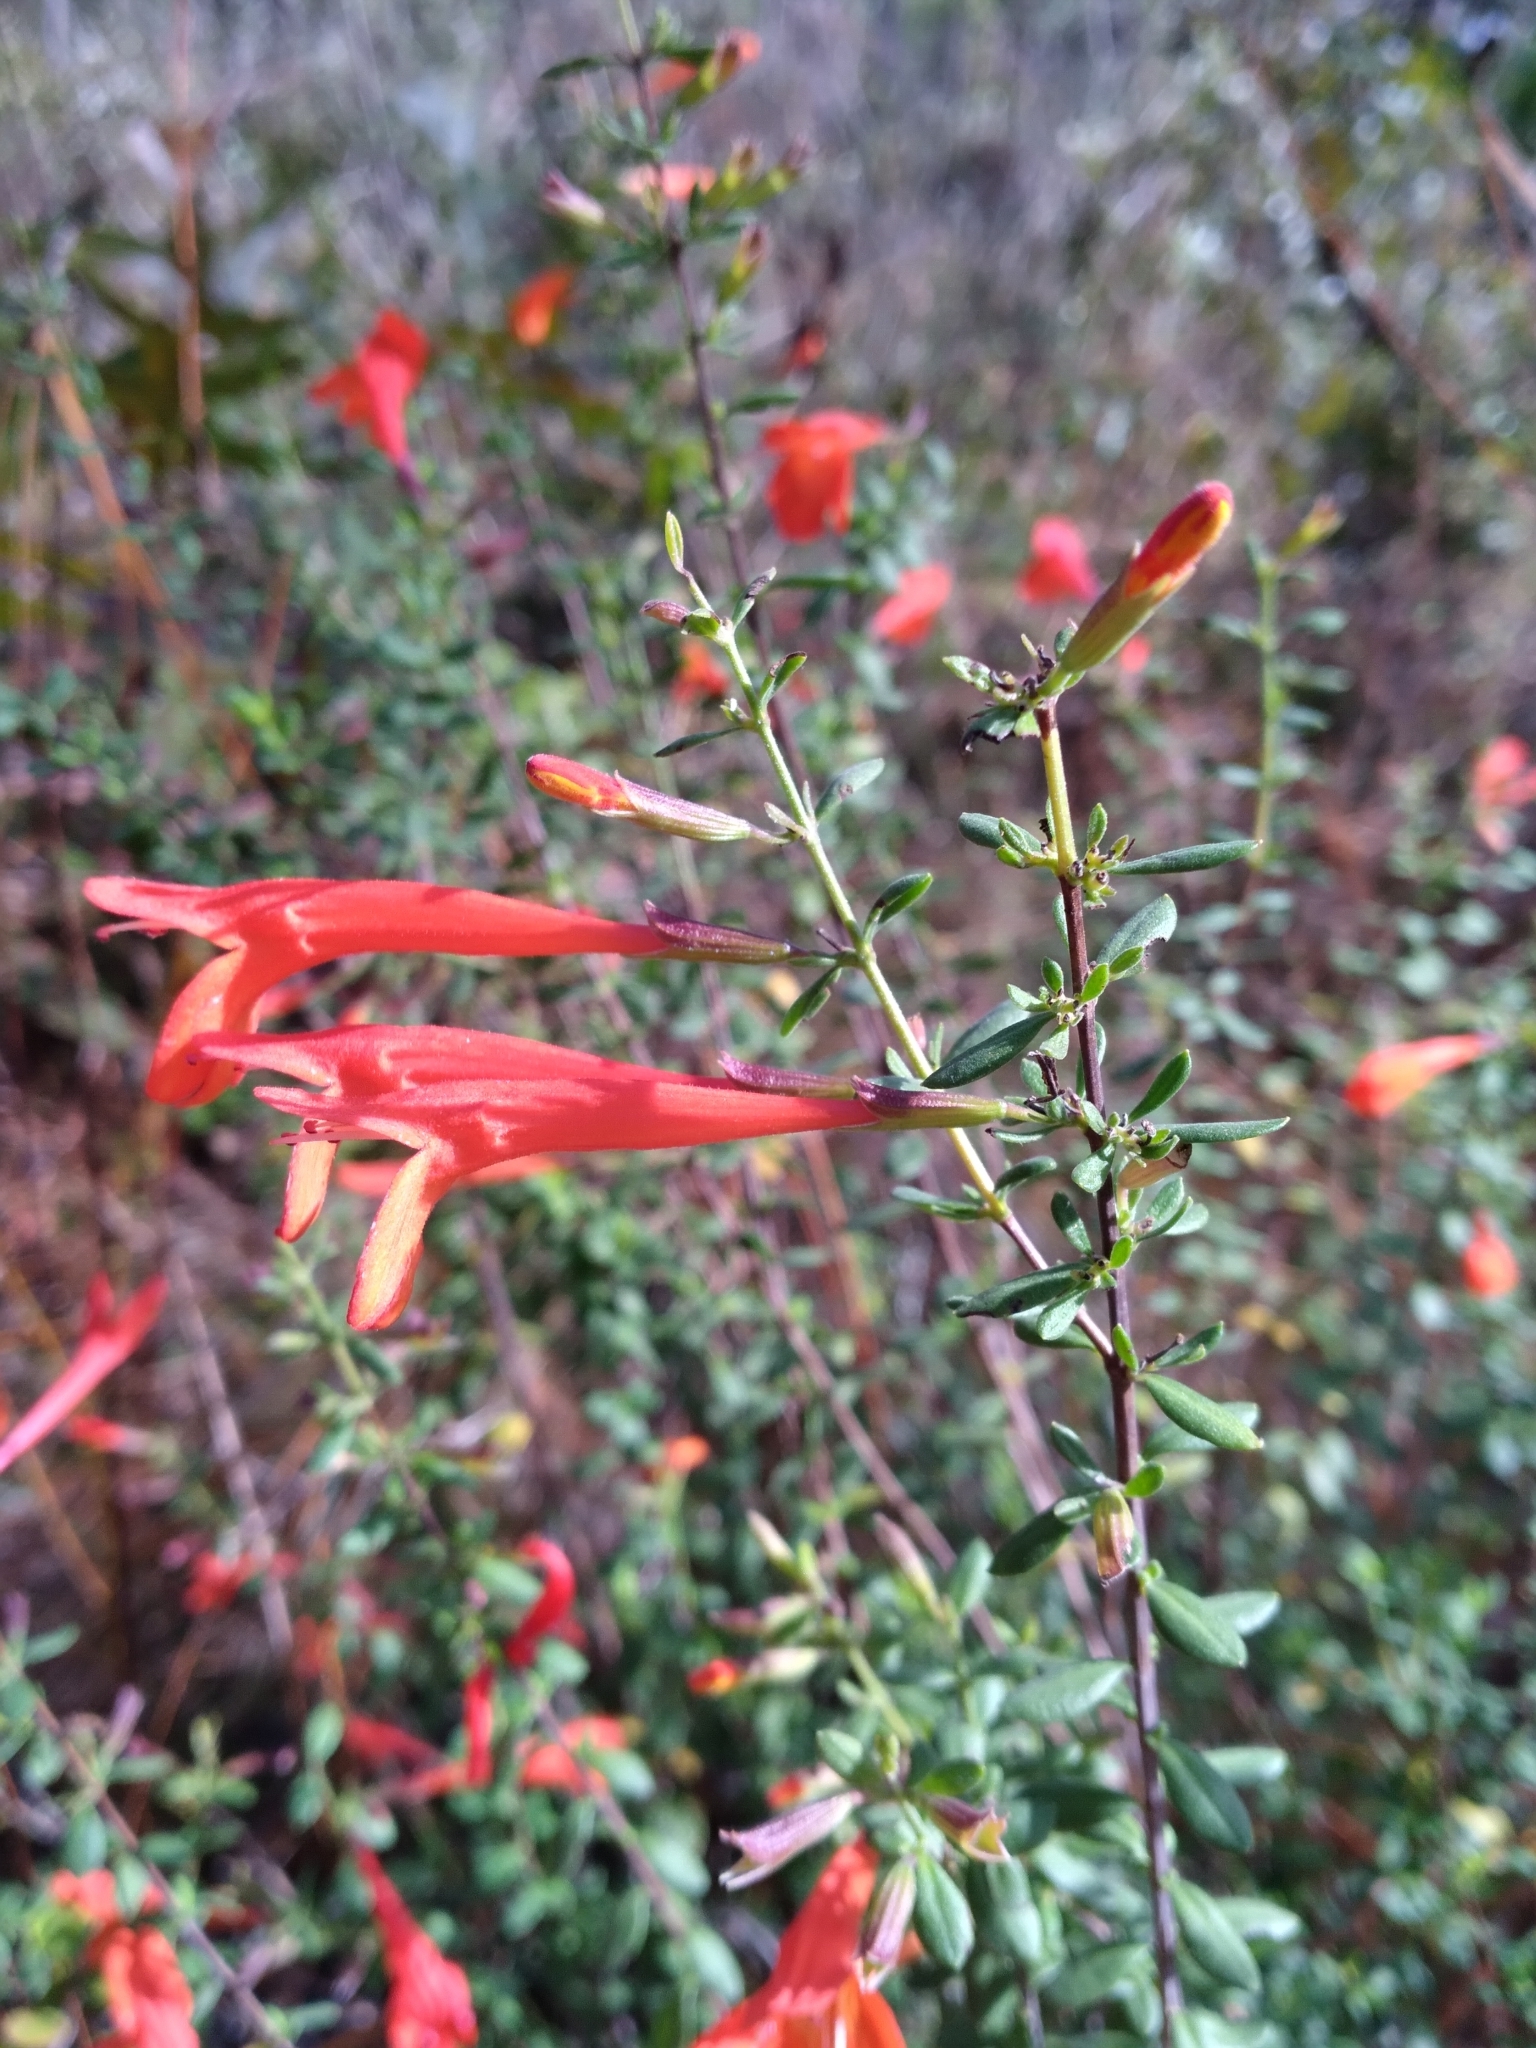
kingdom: Plantae
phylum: Tracheophyta
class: Magnoliopsida
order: Lamiales
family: Lamiaceae
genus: Clinopodium
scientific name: Clinopodium coccineum
